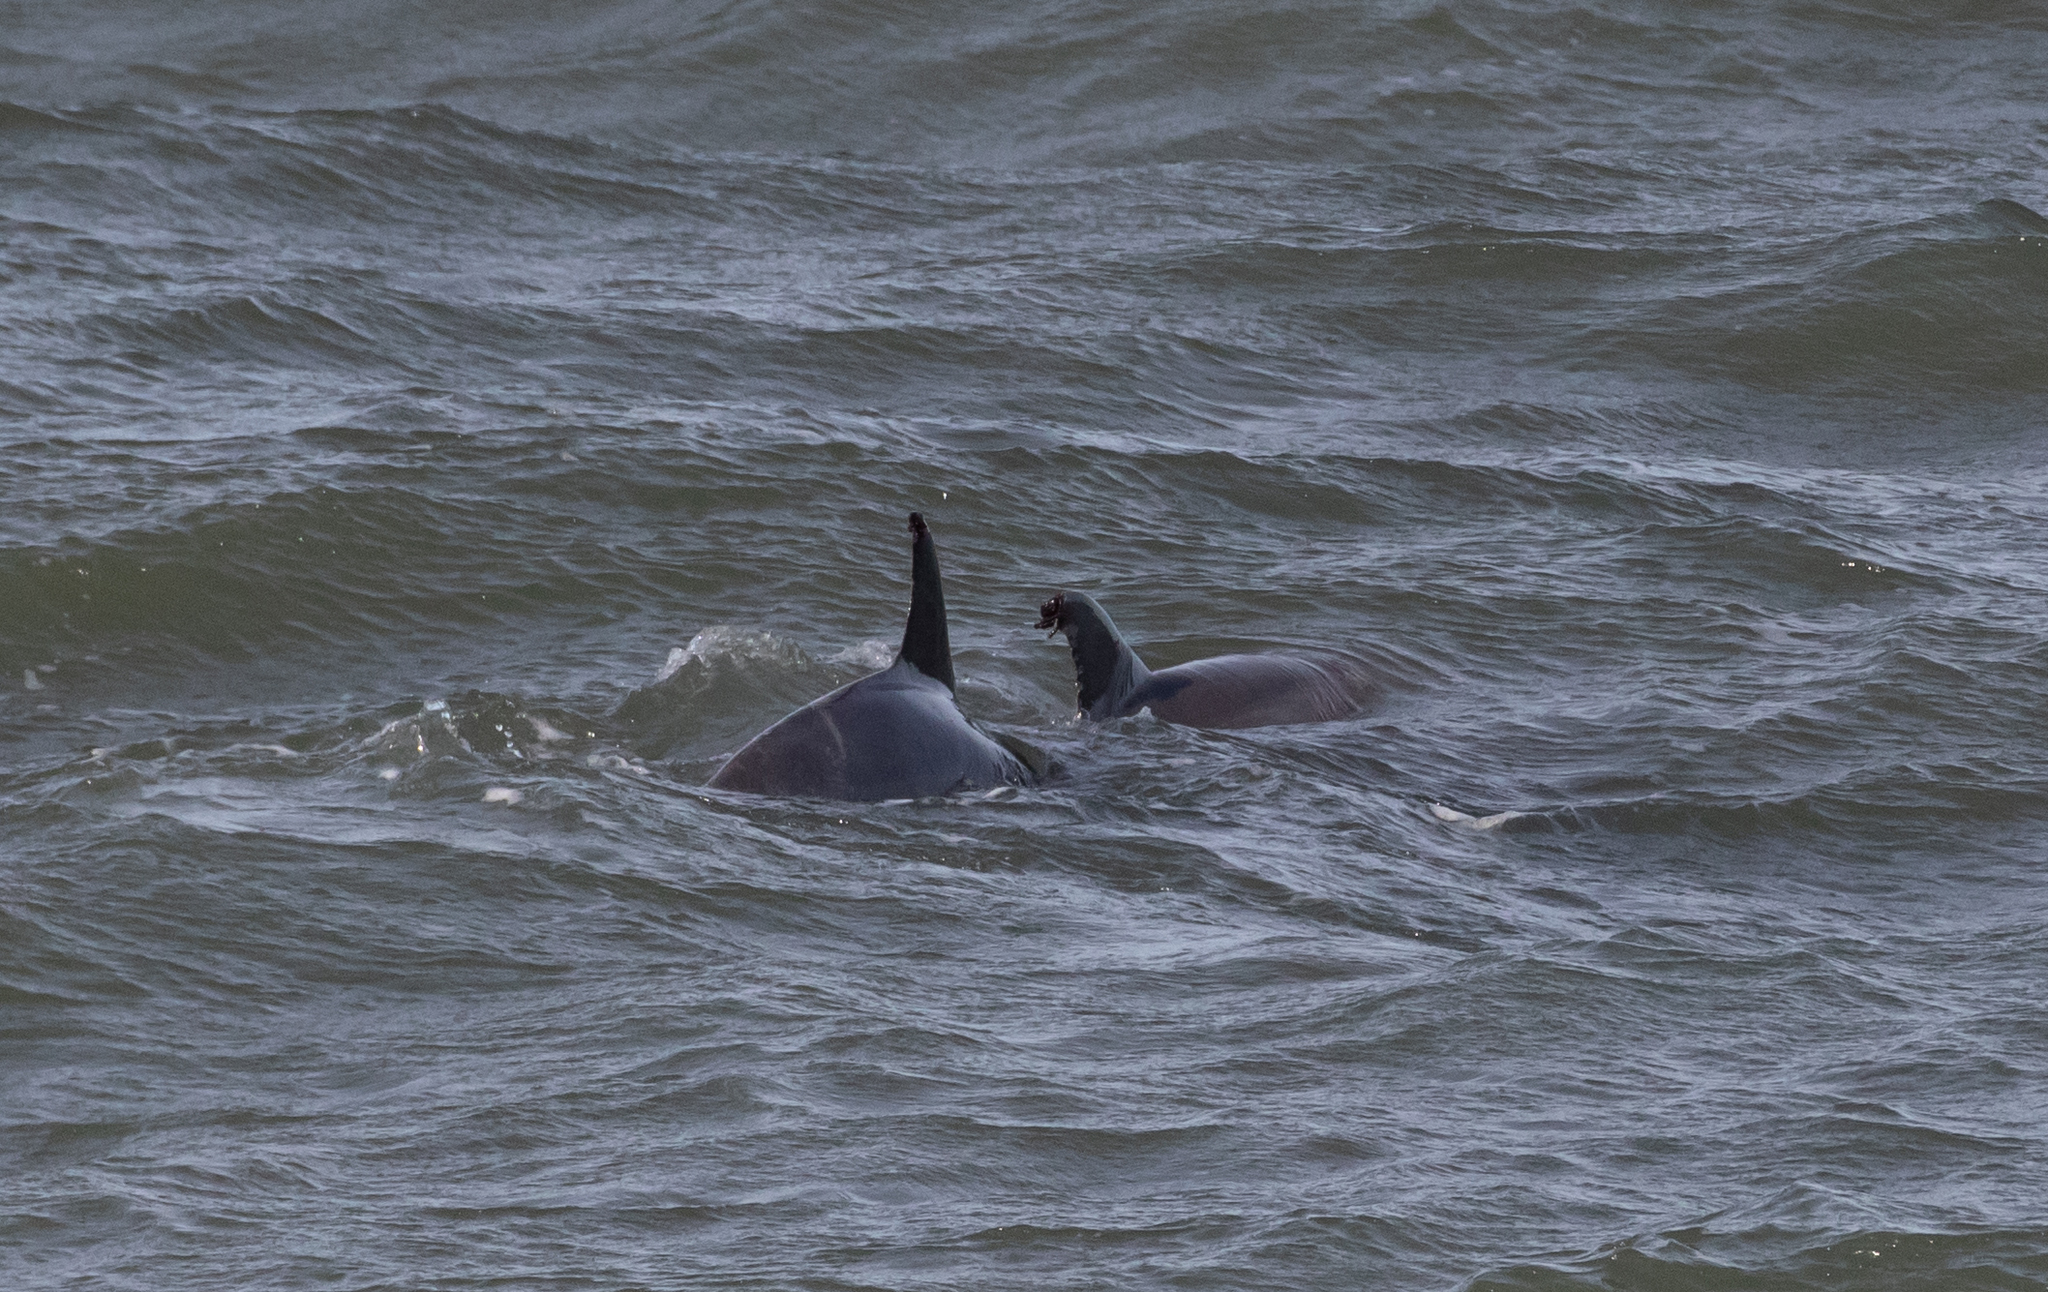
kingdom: Animalia
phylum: Chordata
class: Mammalia
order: Cetacea
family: Delphinidae
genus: Tursiops
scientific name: Tursiops truncatus
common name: Bottlenose dolphin
